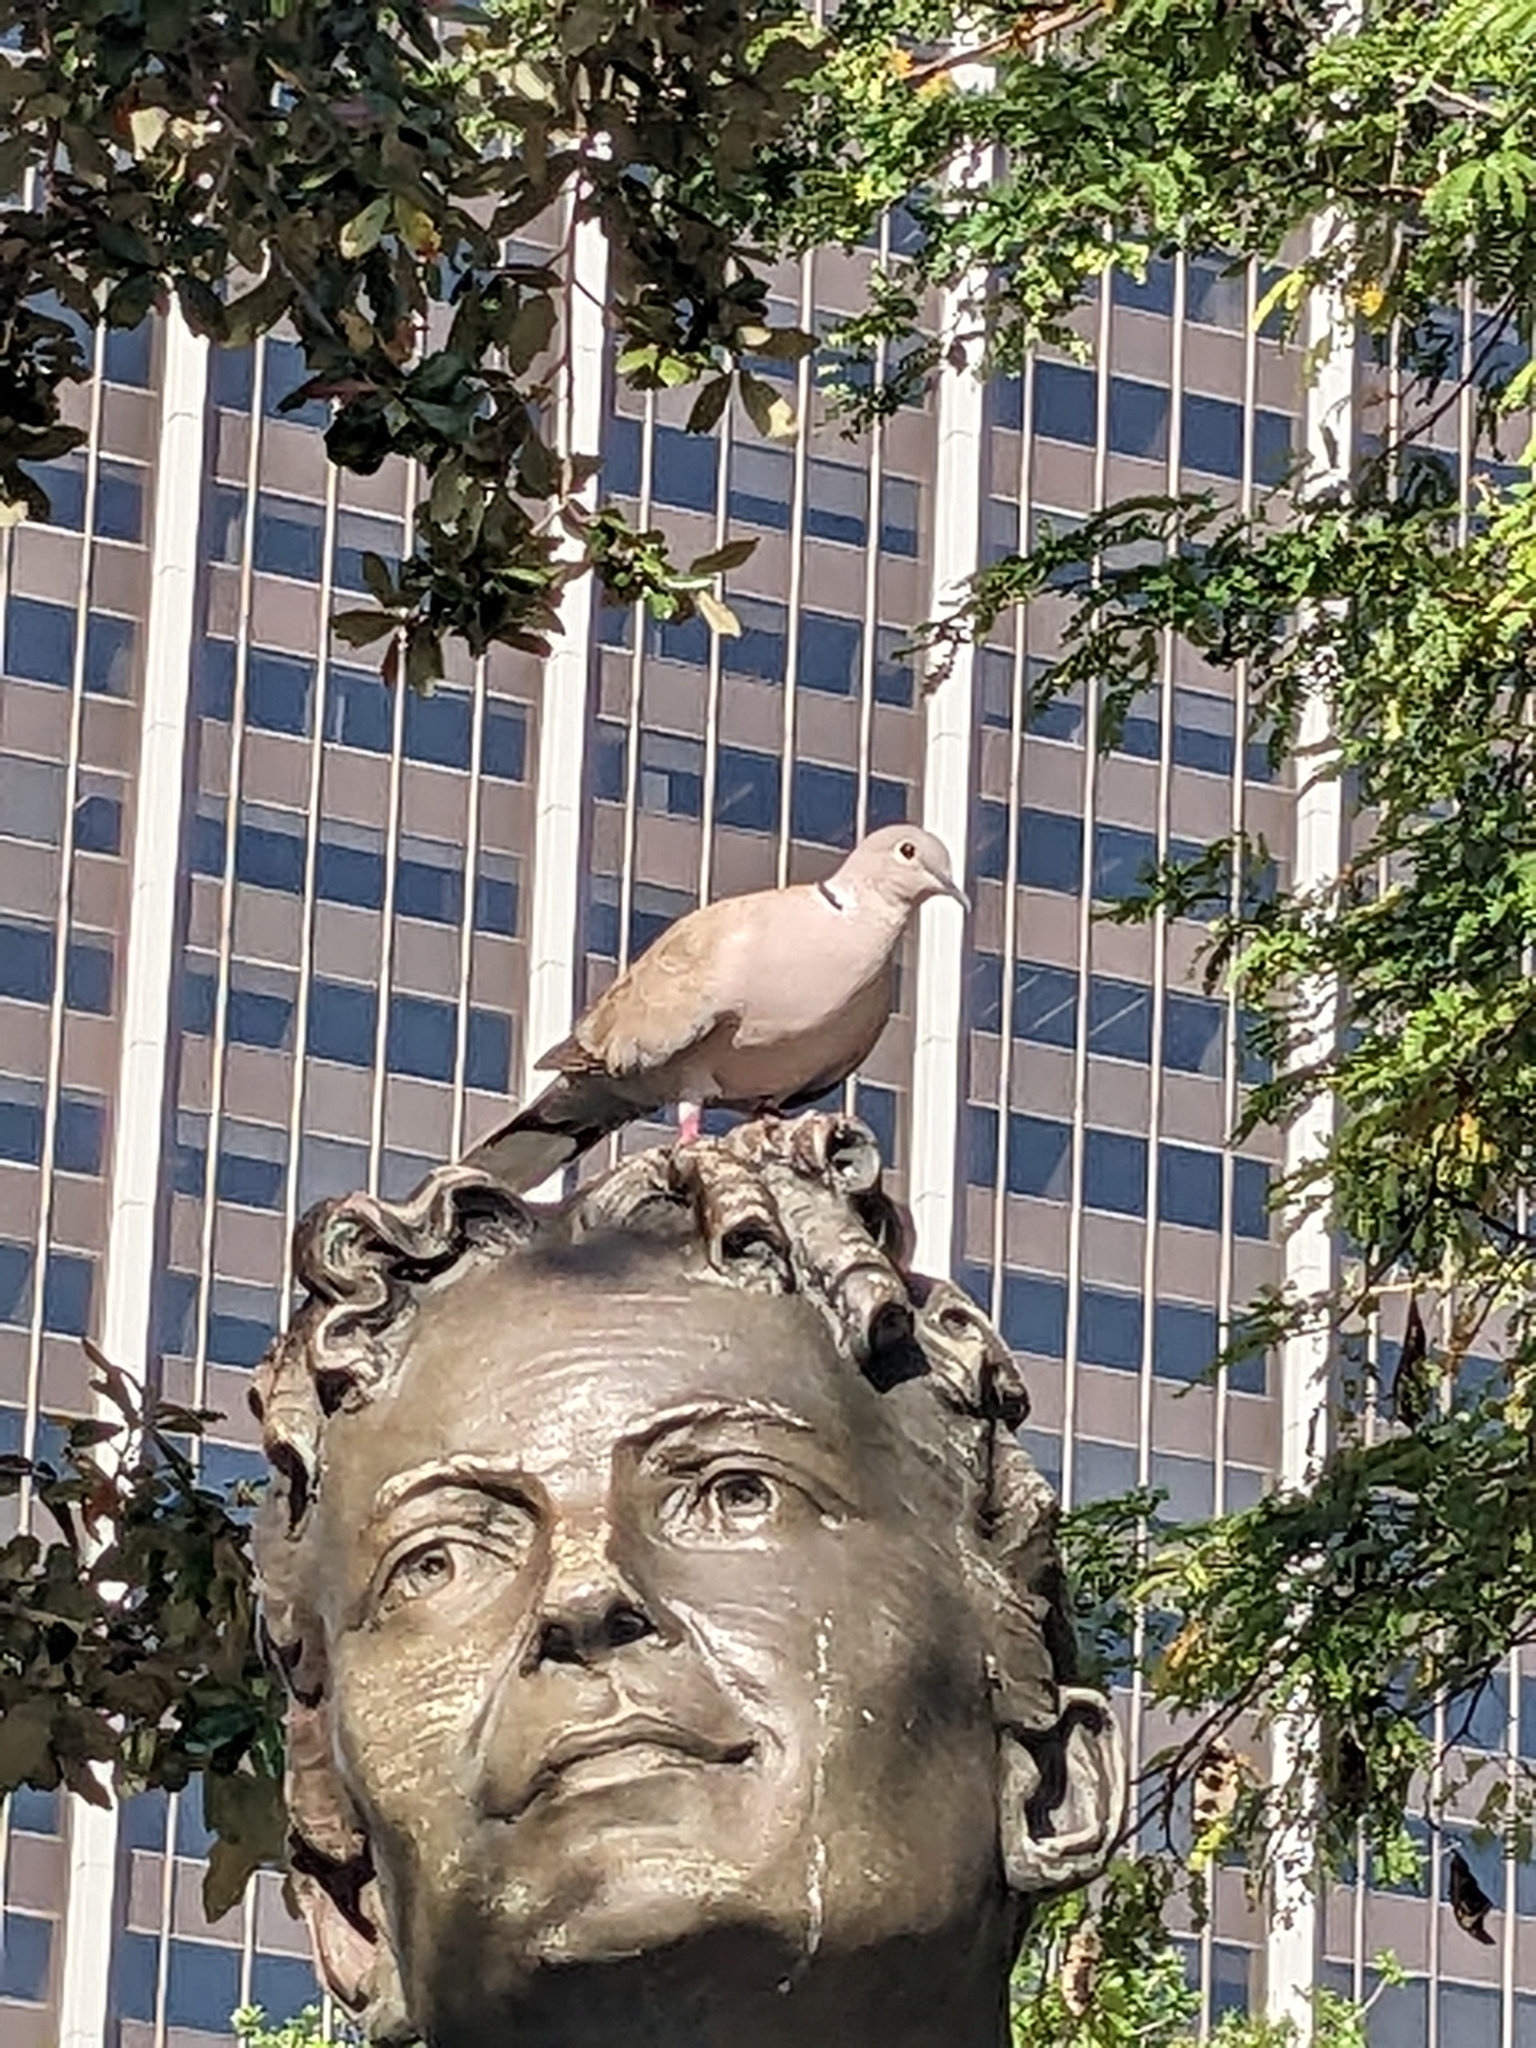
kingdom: Animalia
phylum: Chordata
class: Aves
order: Columbiformes
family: Columbidae
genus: Streptopelia
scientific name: Streptopelia decaocto
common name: Eurasian collared dove
